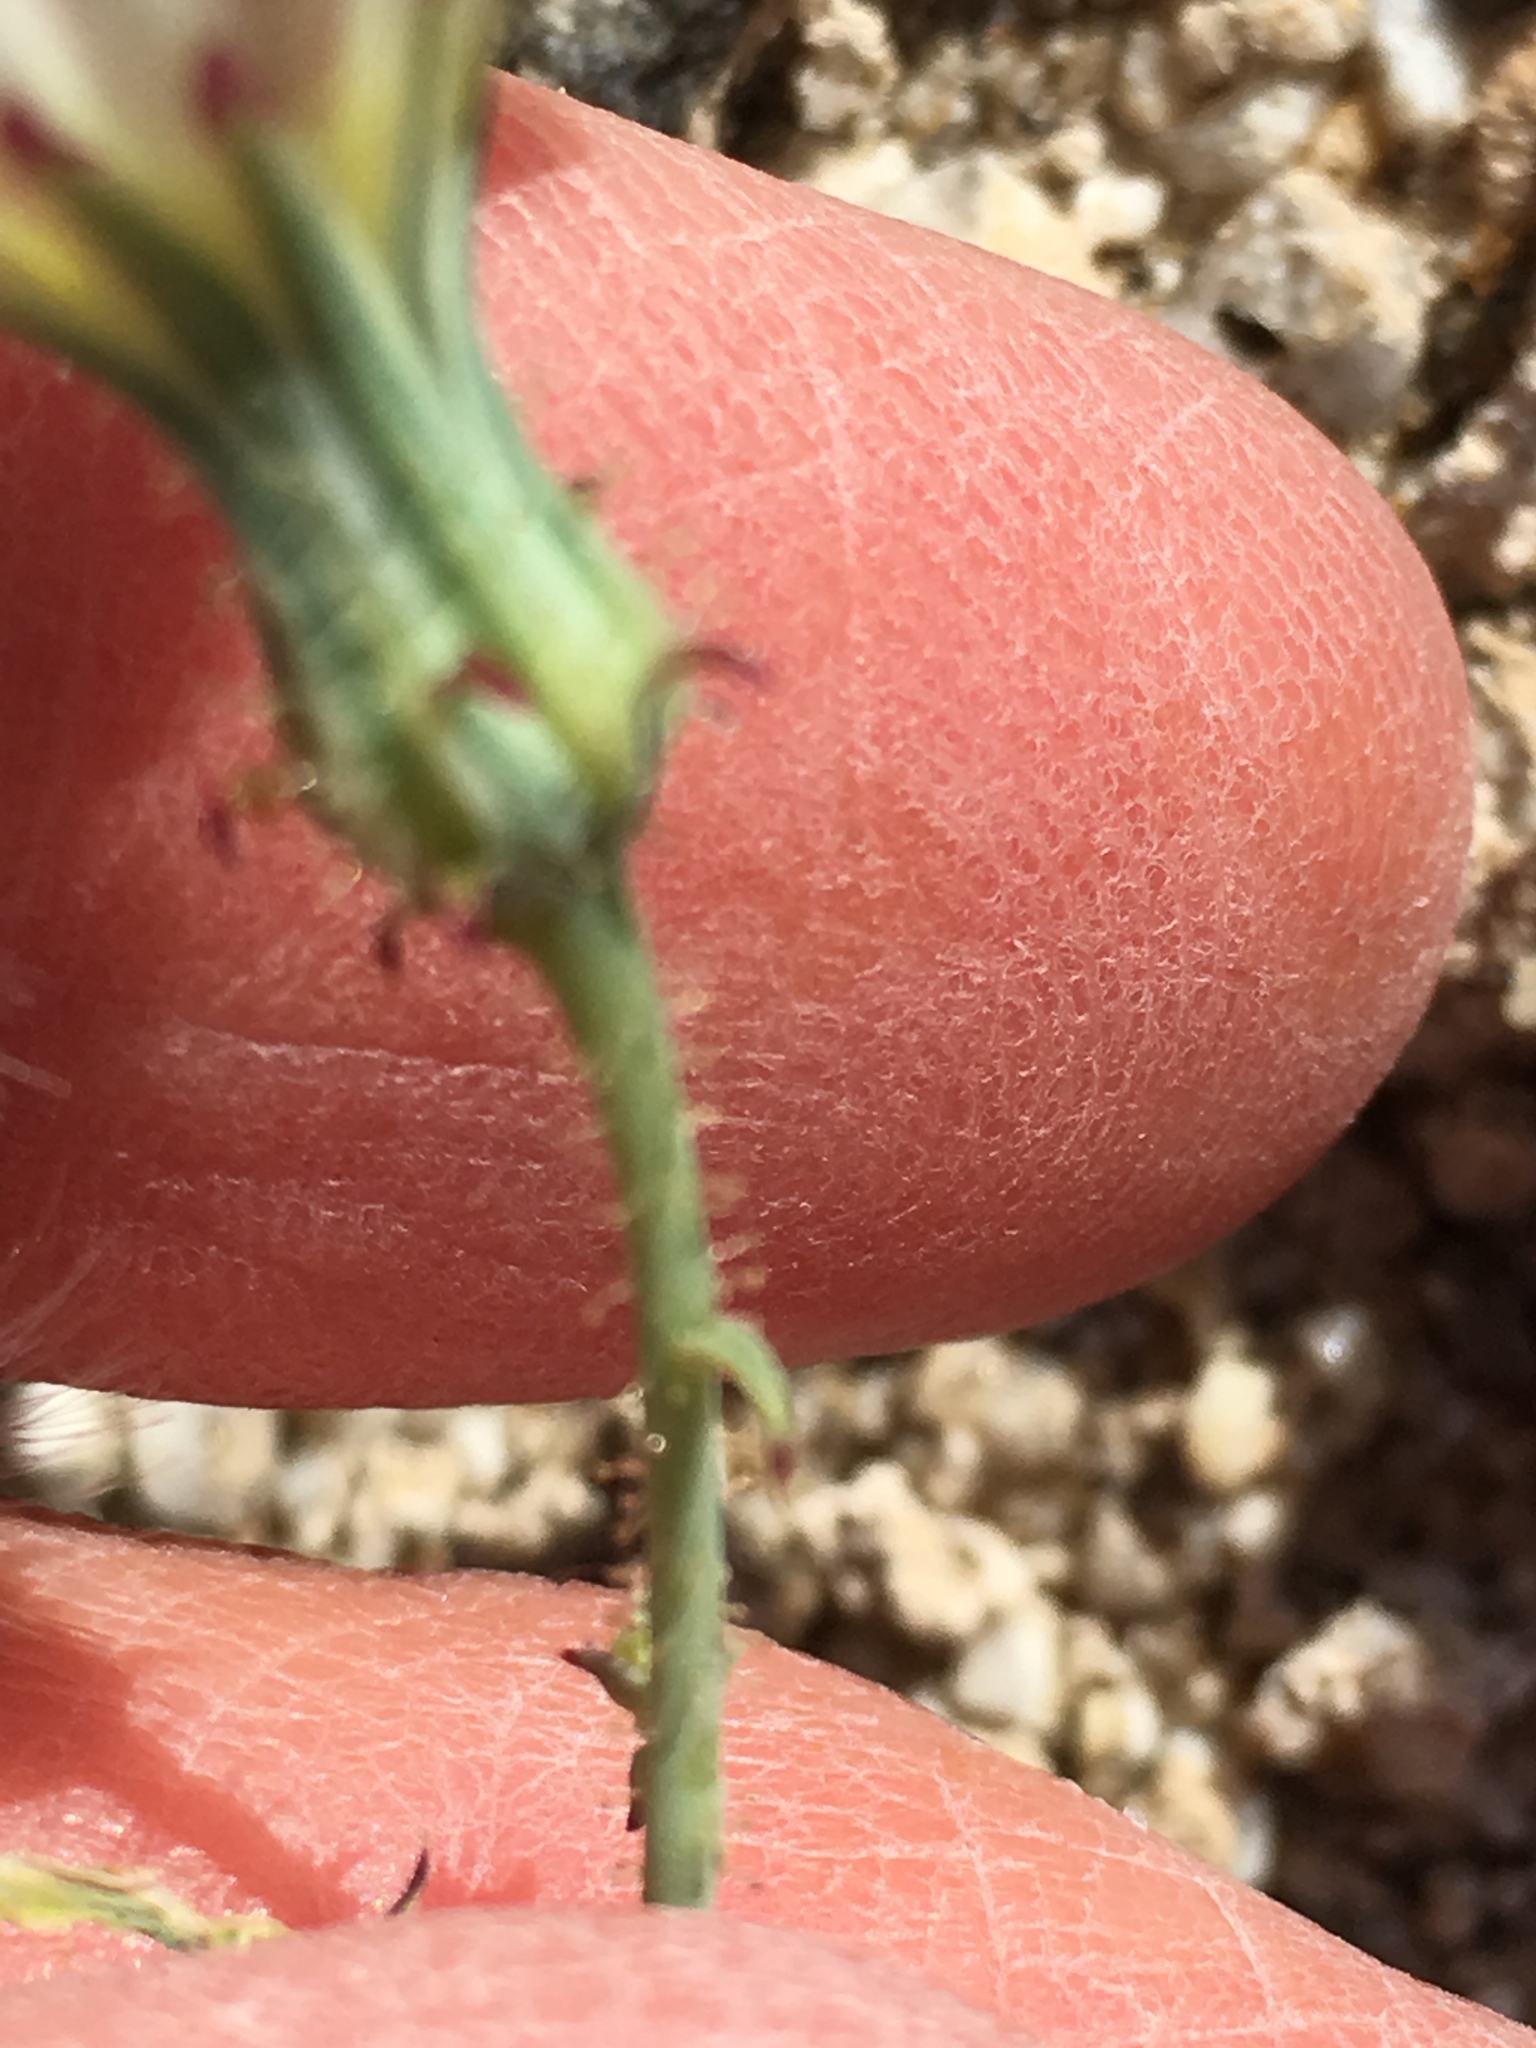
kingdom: Plantae
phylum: Tracheophyta
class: Magnoliopsida
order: Asterales
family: Asteraceae
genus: Calycoseris
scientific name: Calycoseris wrightii
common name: White tackstem
